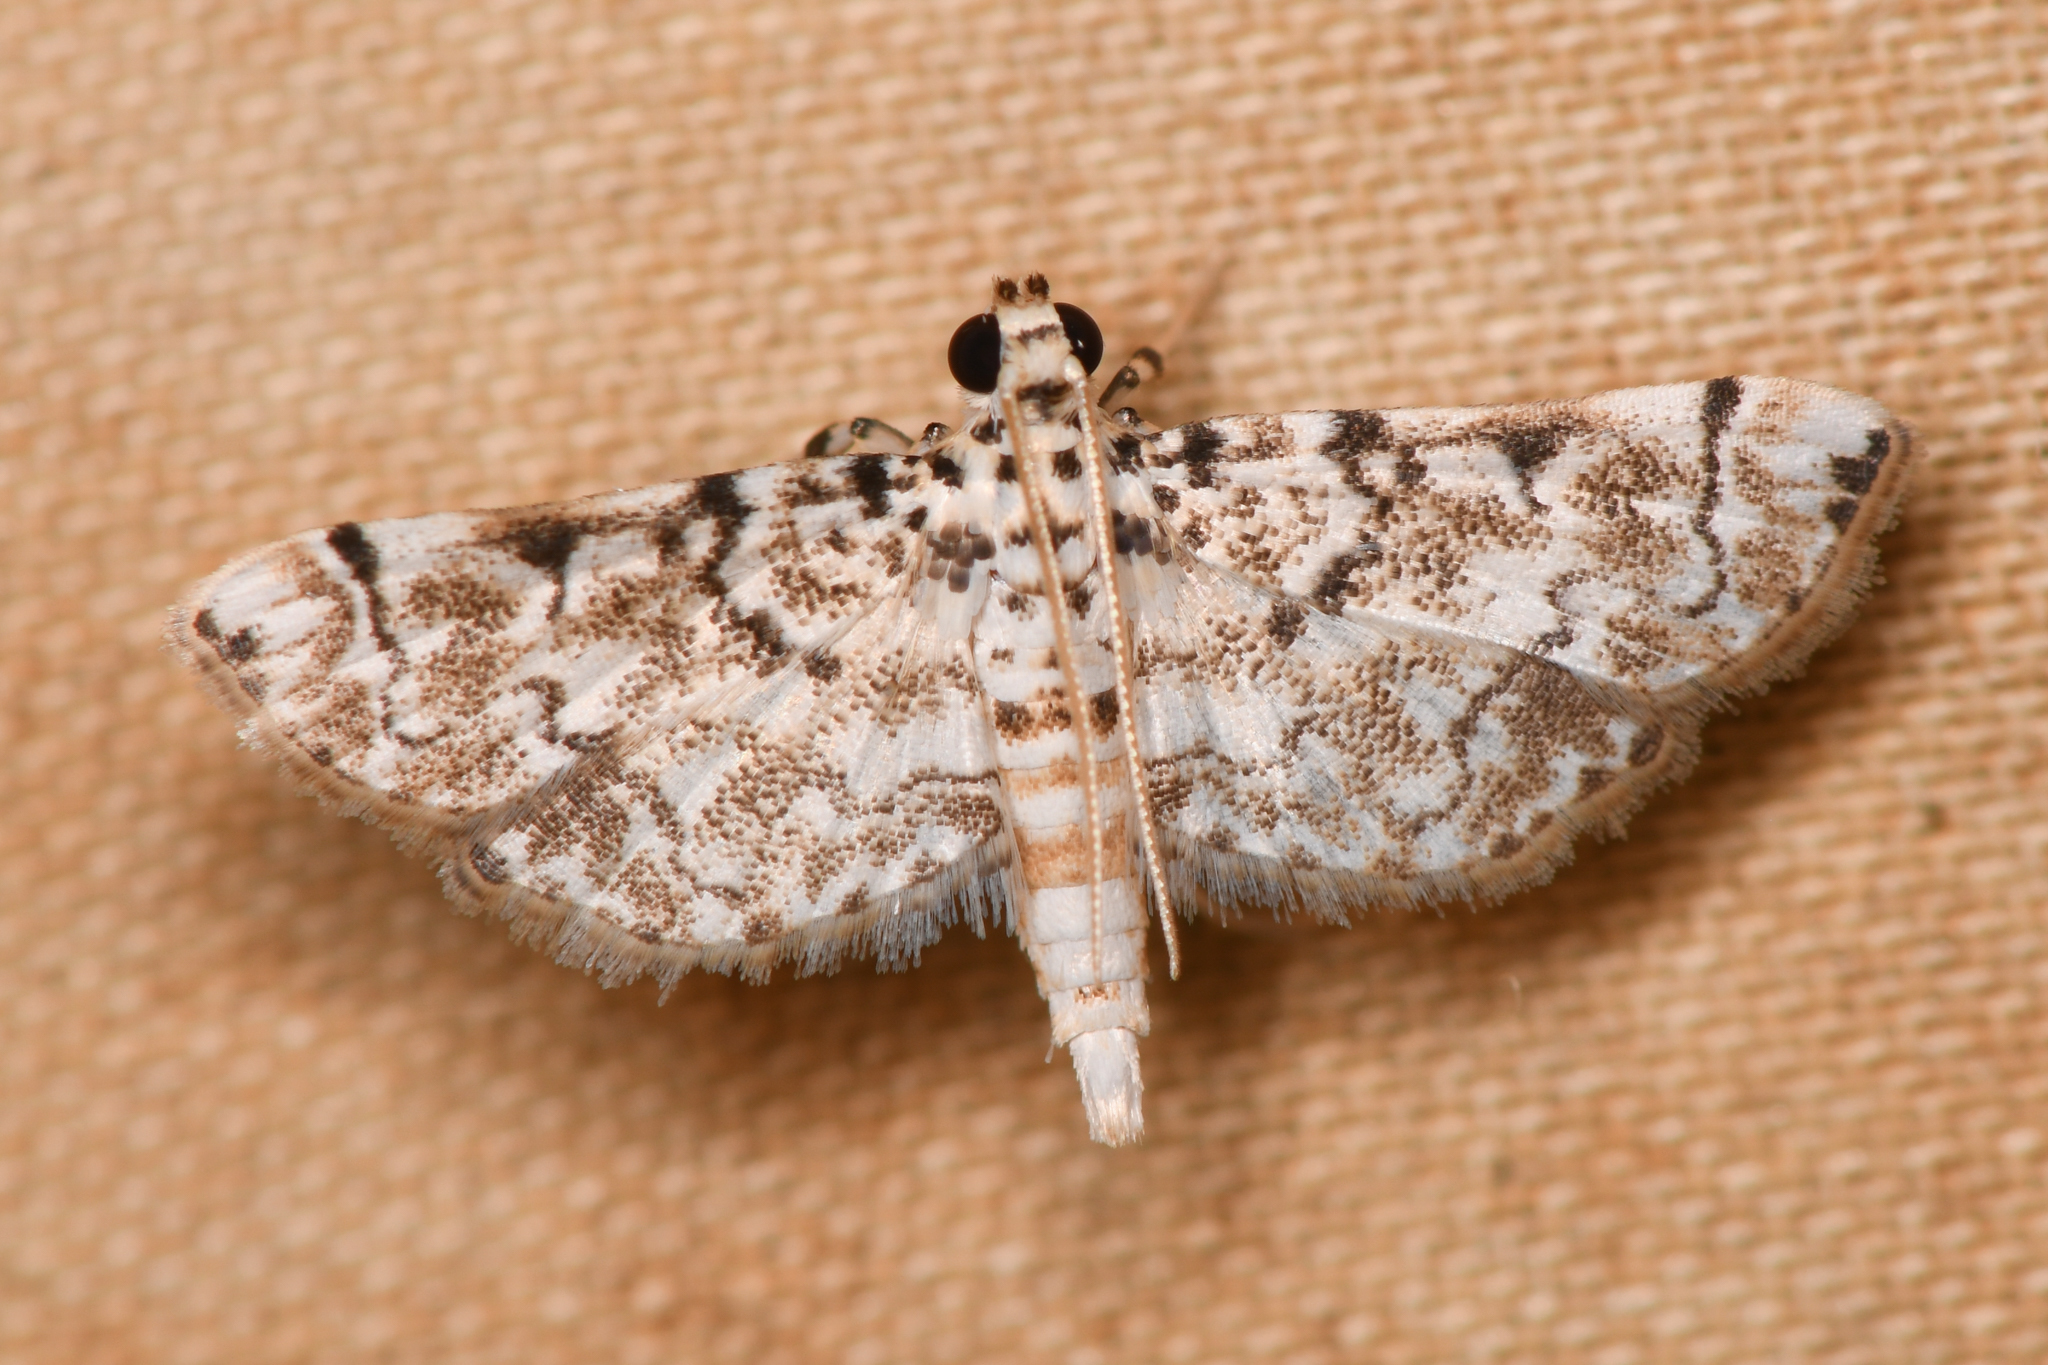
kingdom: Animalia
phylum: Arthropoda
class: Insecta
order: Lepidoptera
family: Crambidae
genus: Metoeca
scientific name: Metoeca foedalis
